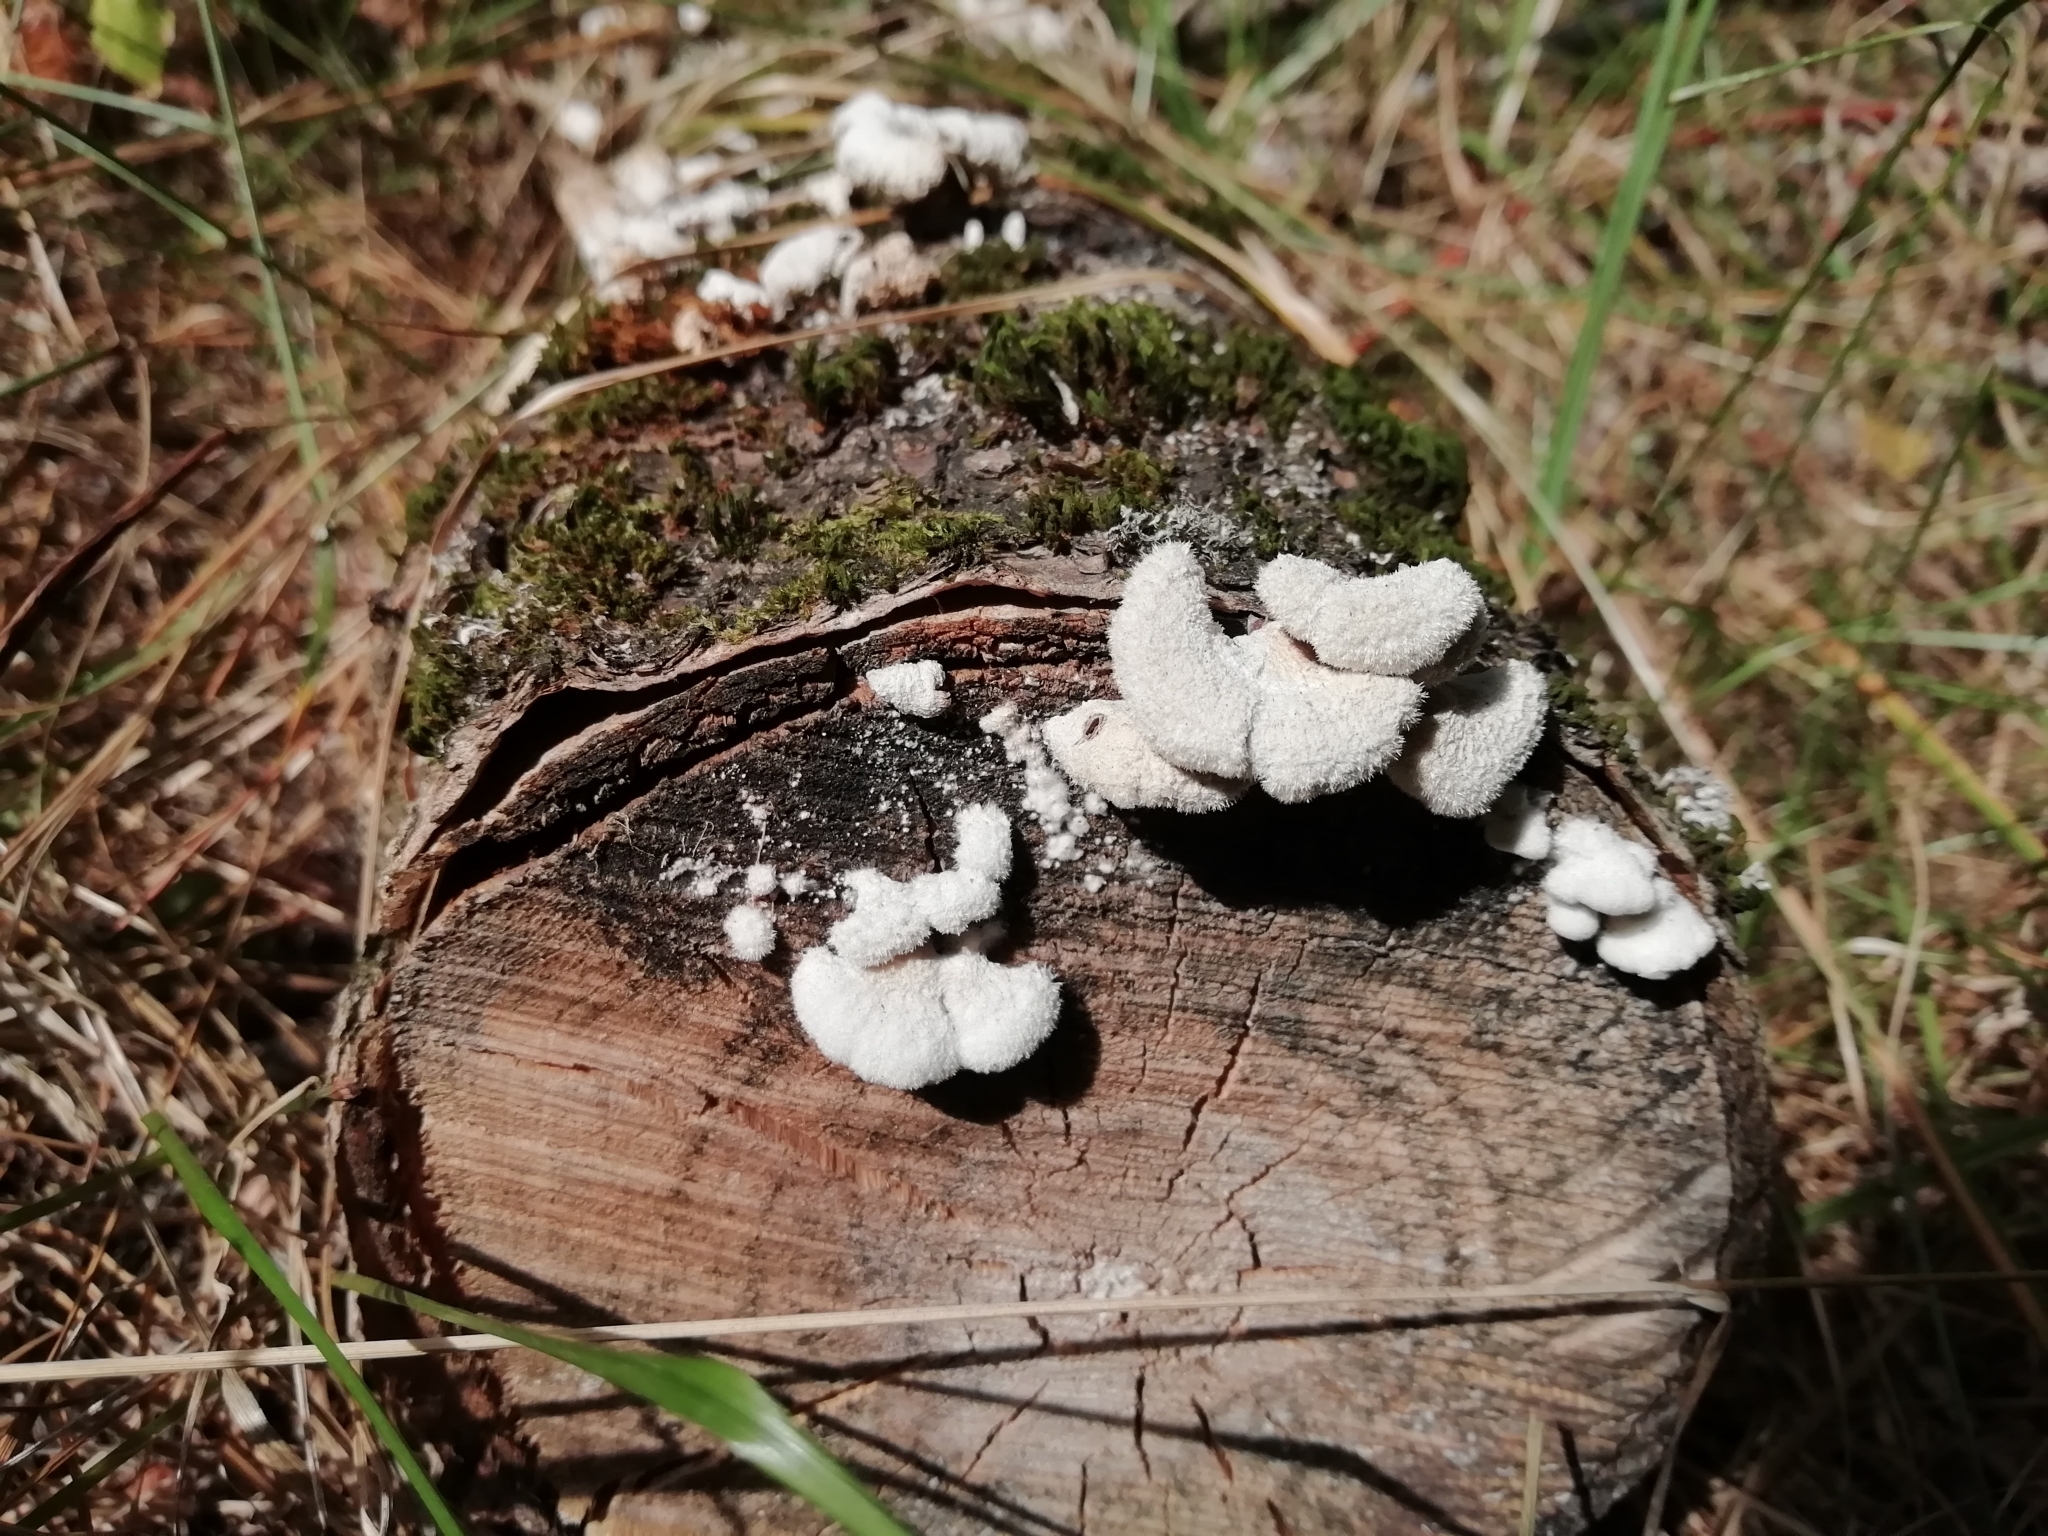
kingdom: Fungi
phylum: Basidiomycota
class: Agaricomycetes
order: Agaricales
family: Schizophyllaceae
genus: Schizophyllum
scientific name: Schizophyllum commune
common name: Common porecrust
